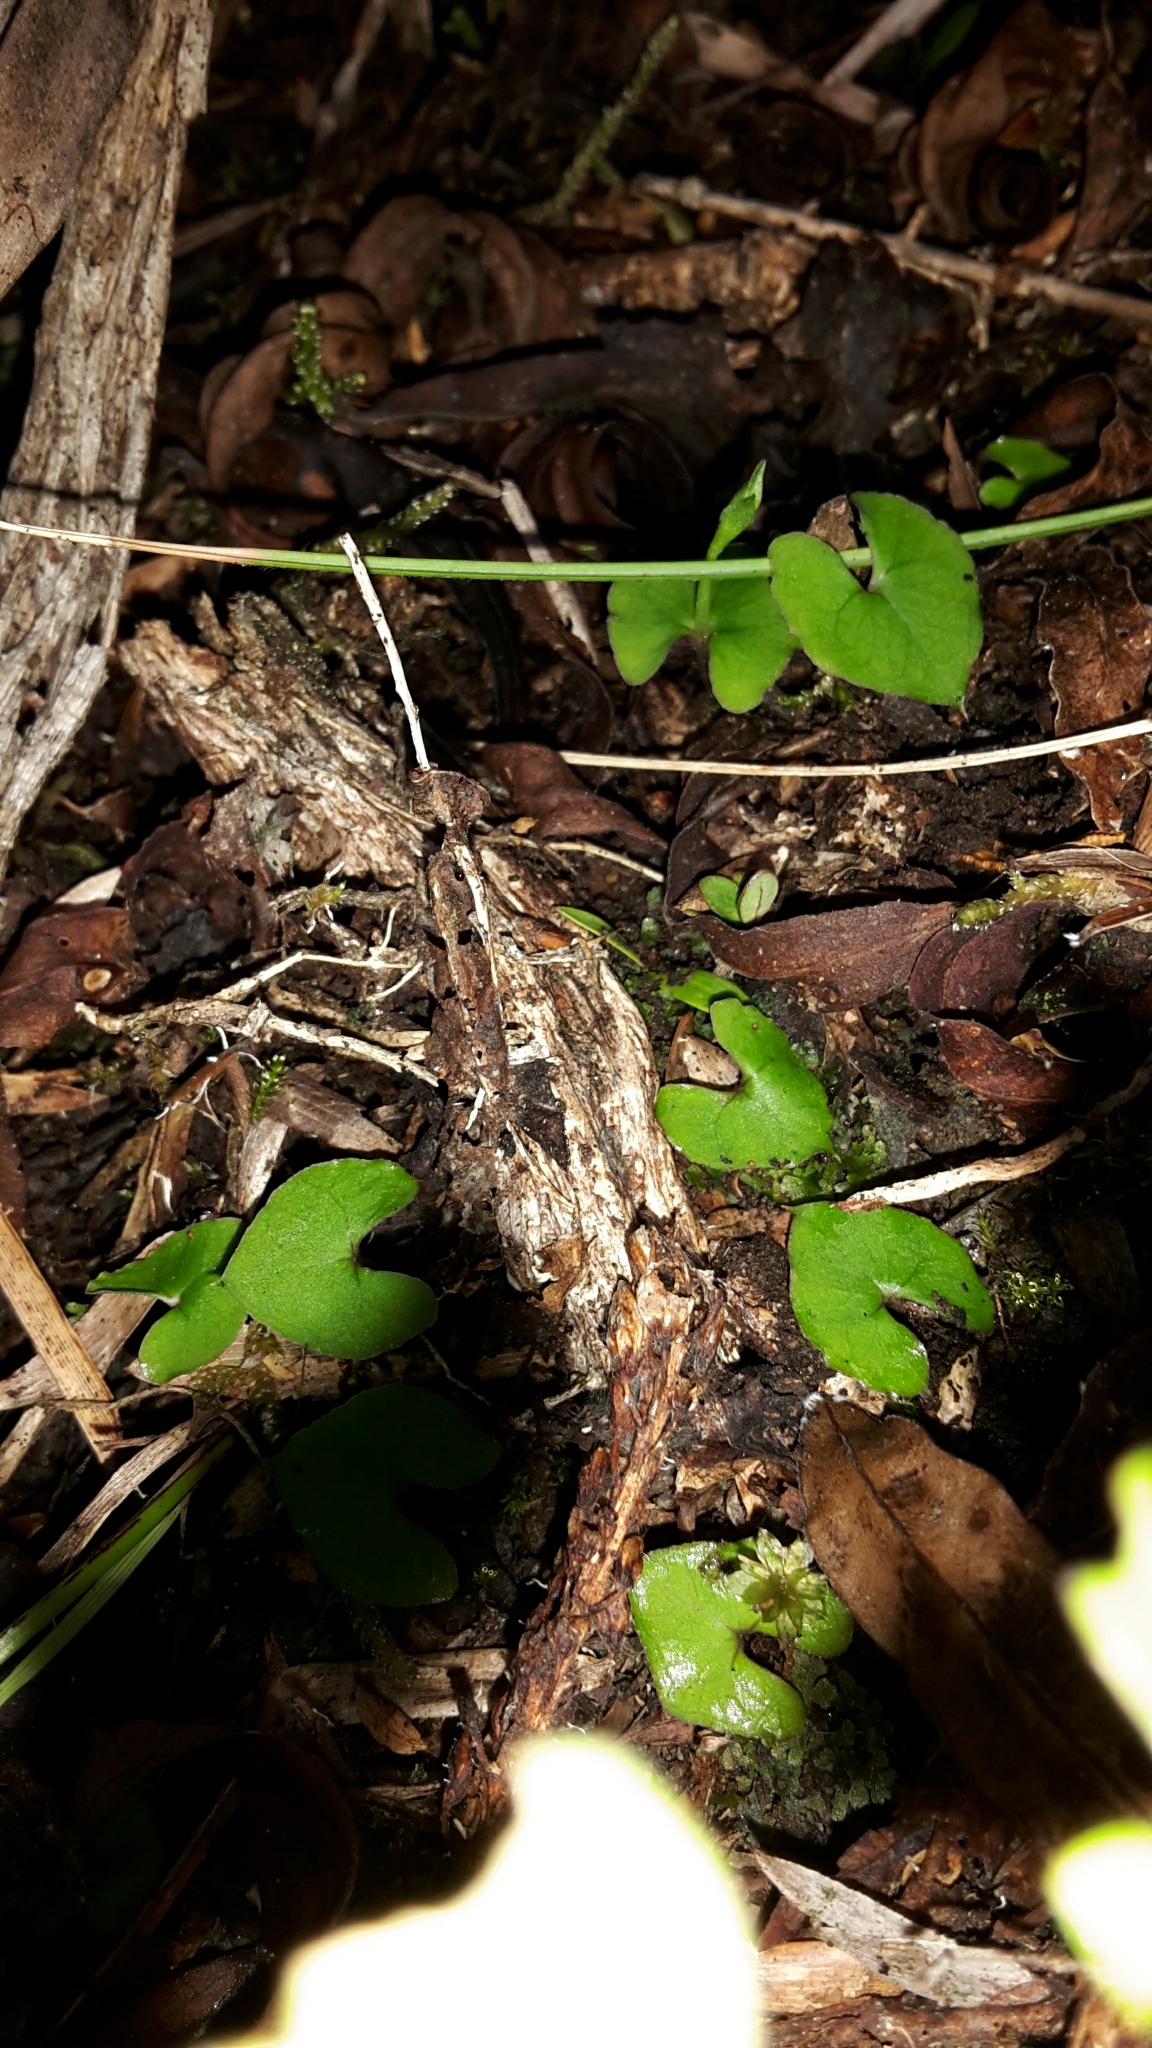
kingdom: Plantae
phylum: Tracheophyta
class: Liliopsida
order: Asparagales
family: Orchidaceae
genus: Acianthus
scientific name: Acianthus sinclairii
